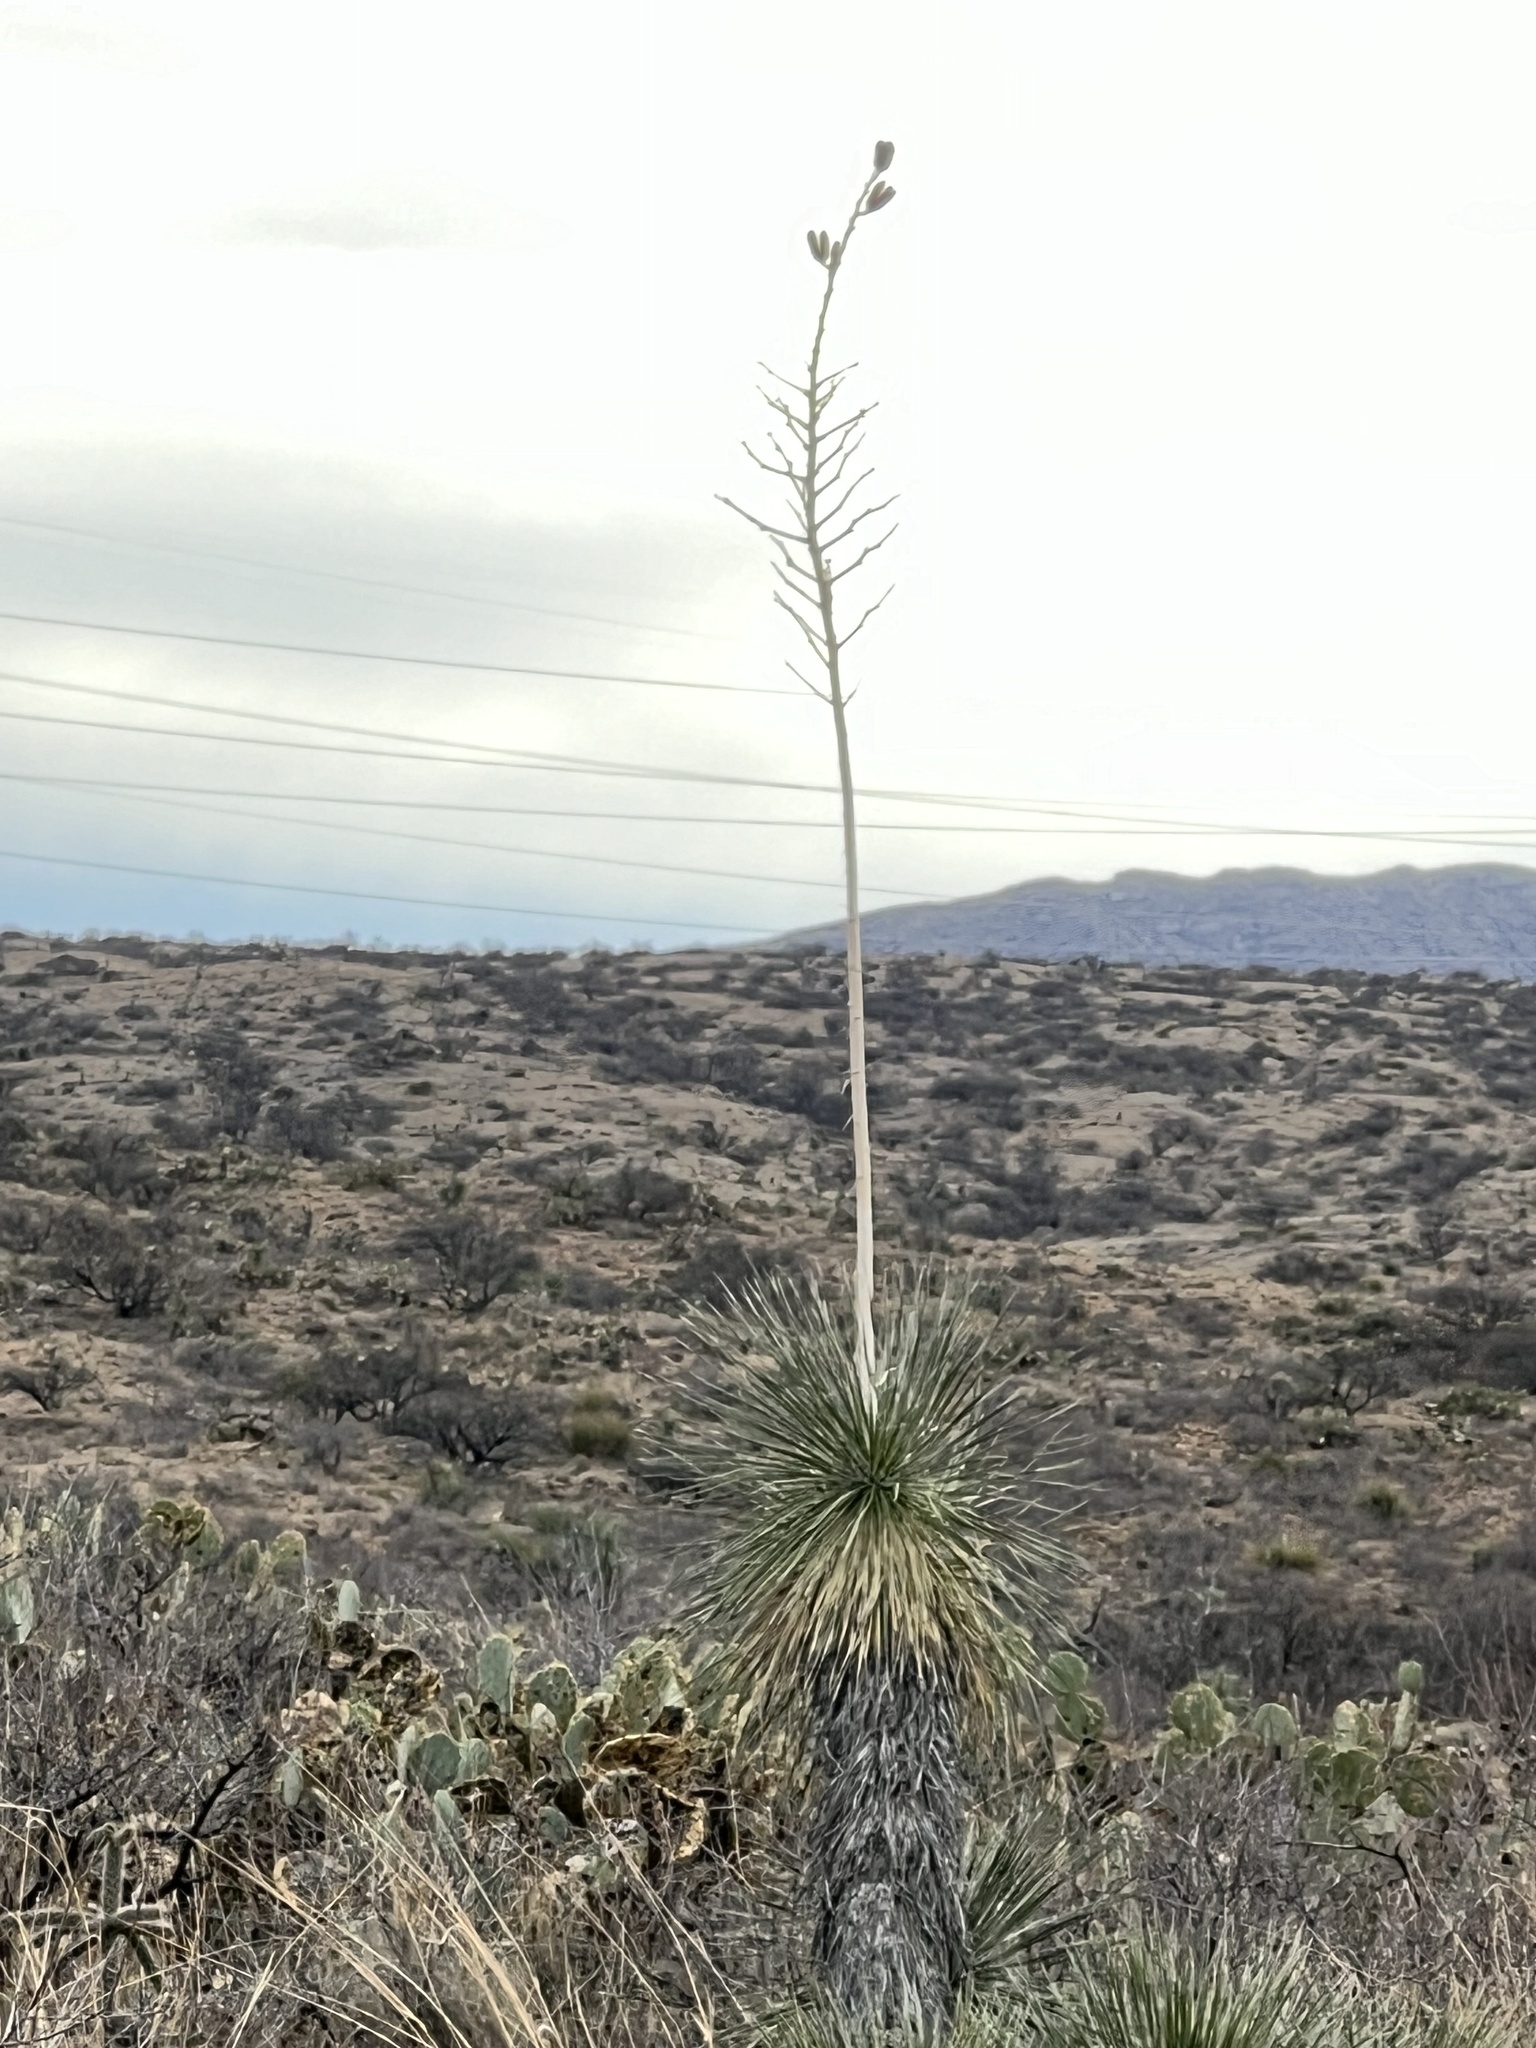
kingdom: Plantae
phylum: Tracheophyta
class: Liliopsida
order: Asparagales
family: Asparagaceae
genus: Yucca
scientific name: Yucca elata
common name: Palmella
